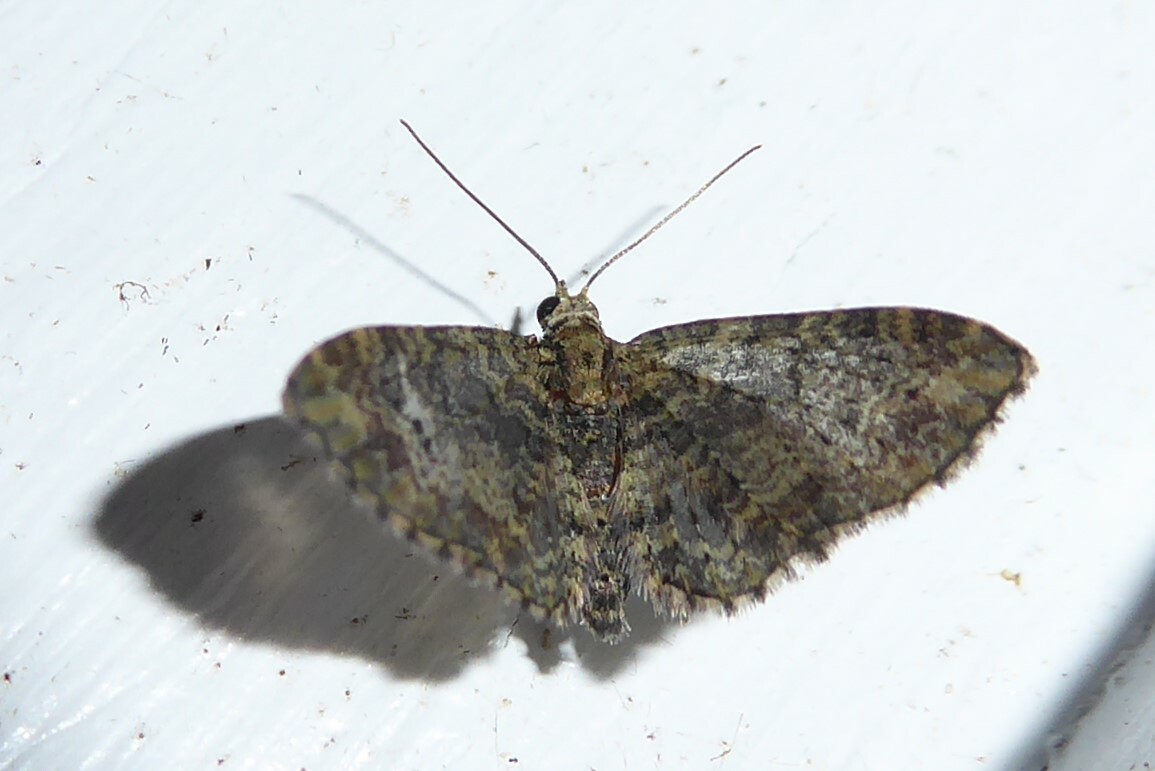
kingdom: Animalia
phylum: Arthropoda
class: Insecta
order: Lepidoptera
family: Geometridae
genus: Pasiphilodes
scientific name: Pasiphilodes testulata
